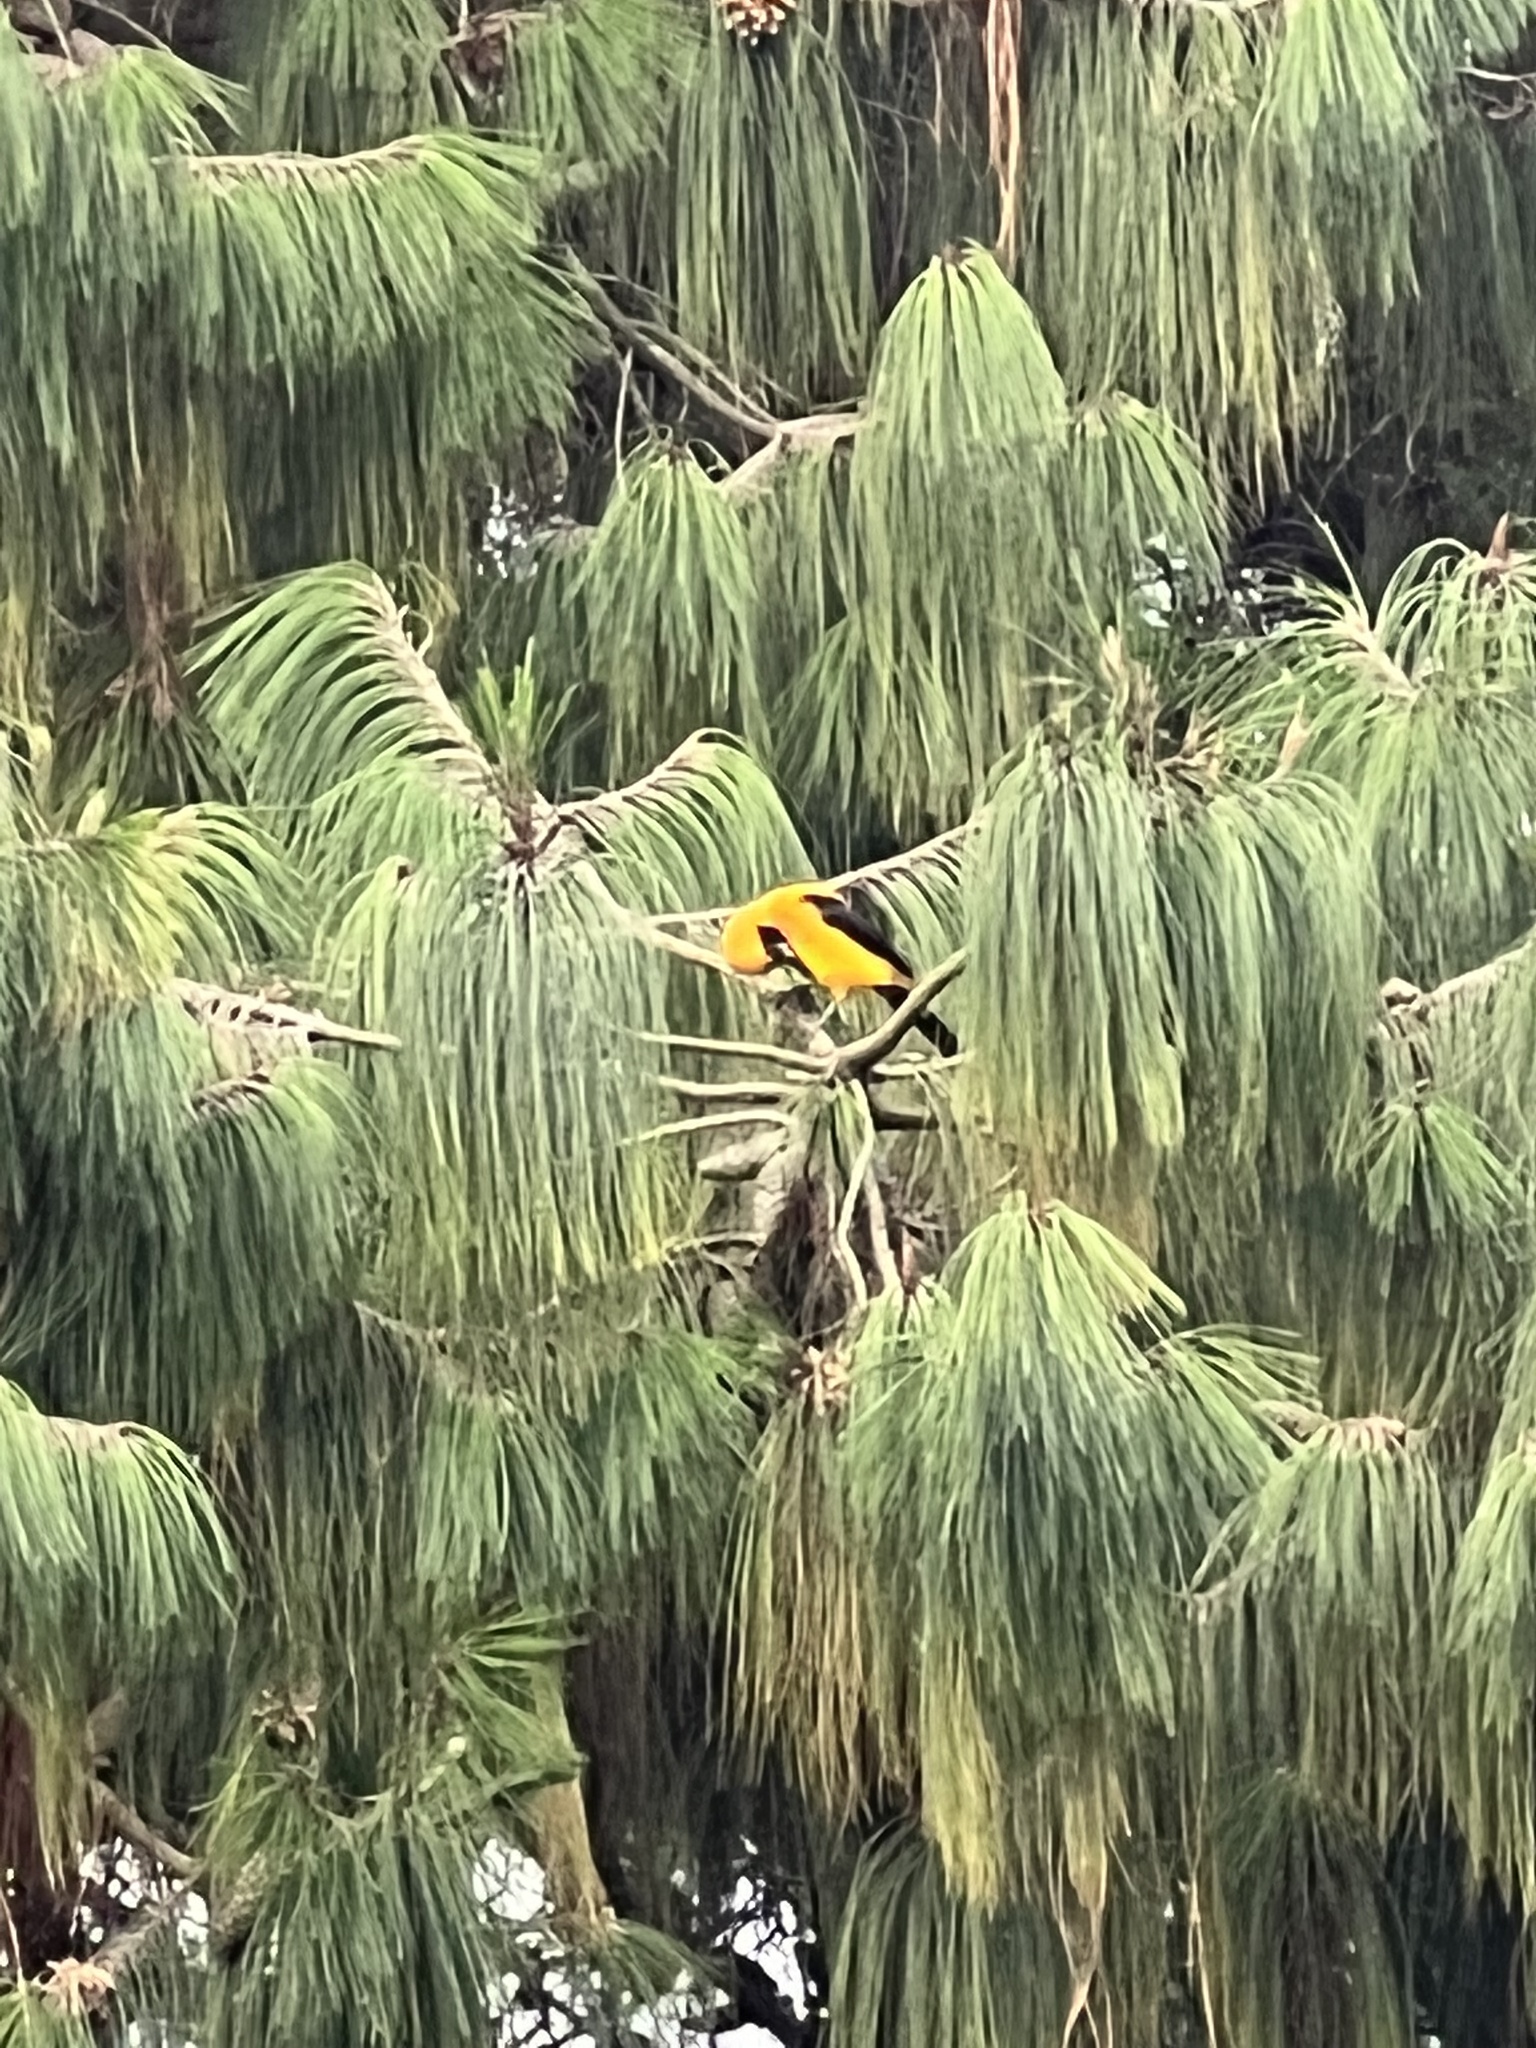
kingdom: Animalia
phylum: Chordata
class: Aves
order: Passeriformes
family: Icteridae
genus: Icterus
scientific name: Icterus chrysater
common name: Yellow-backed oriole
